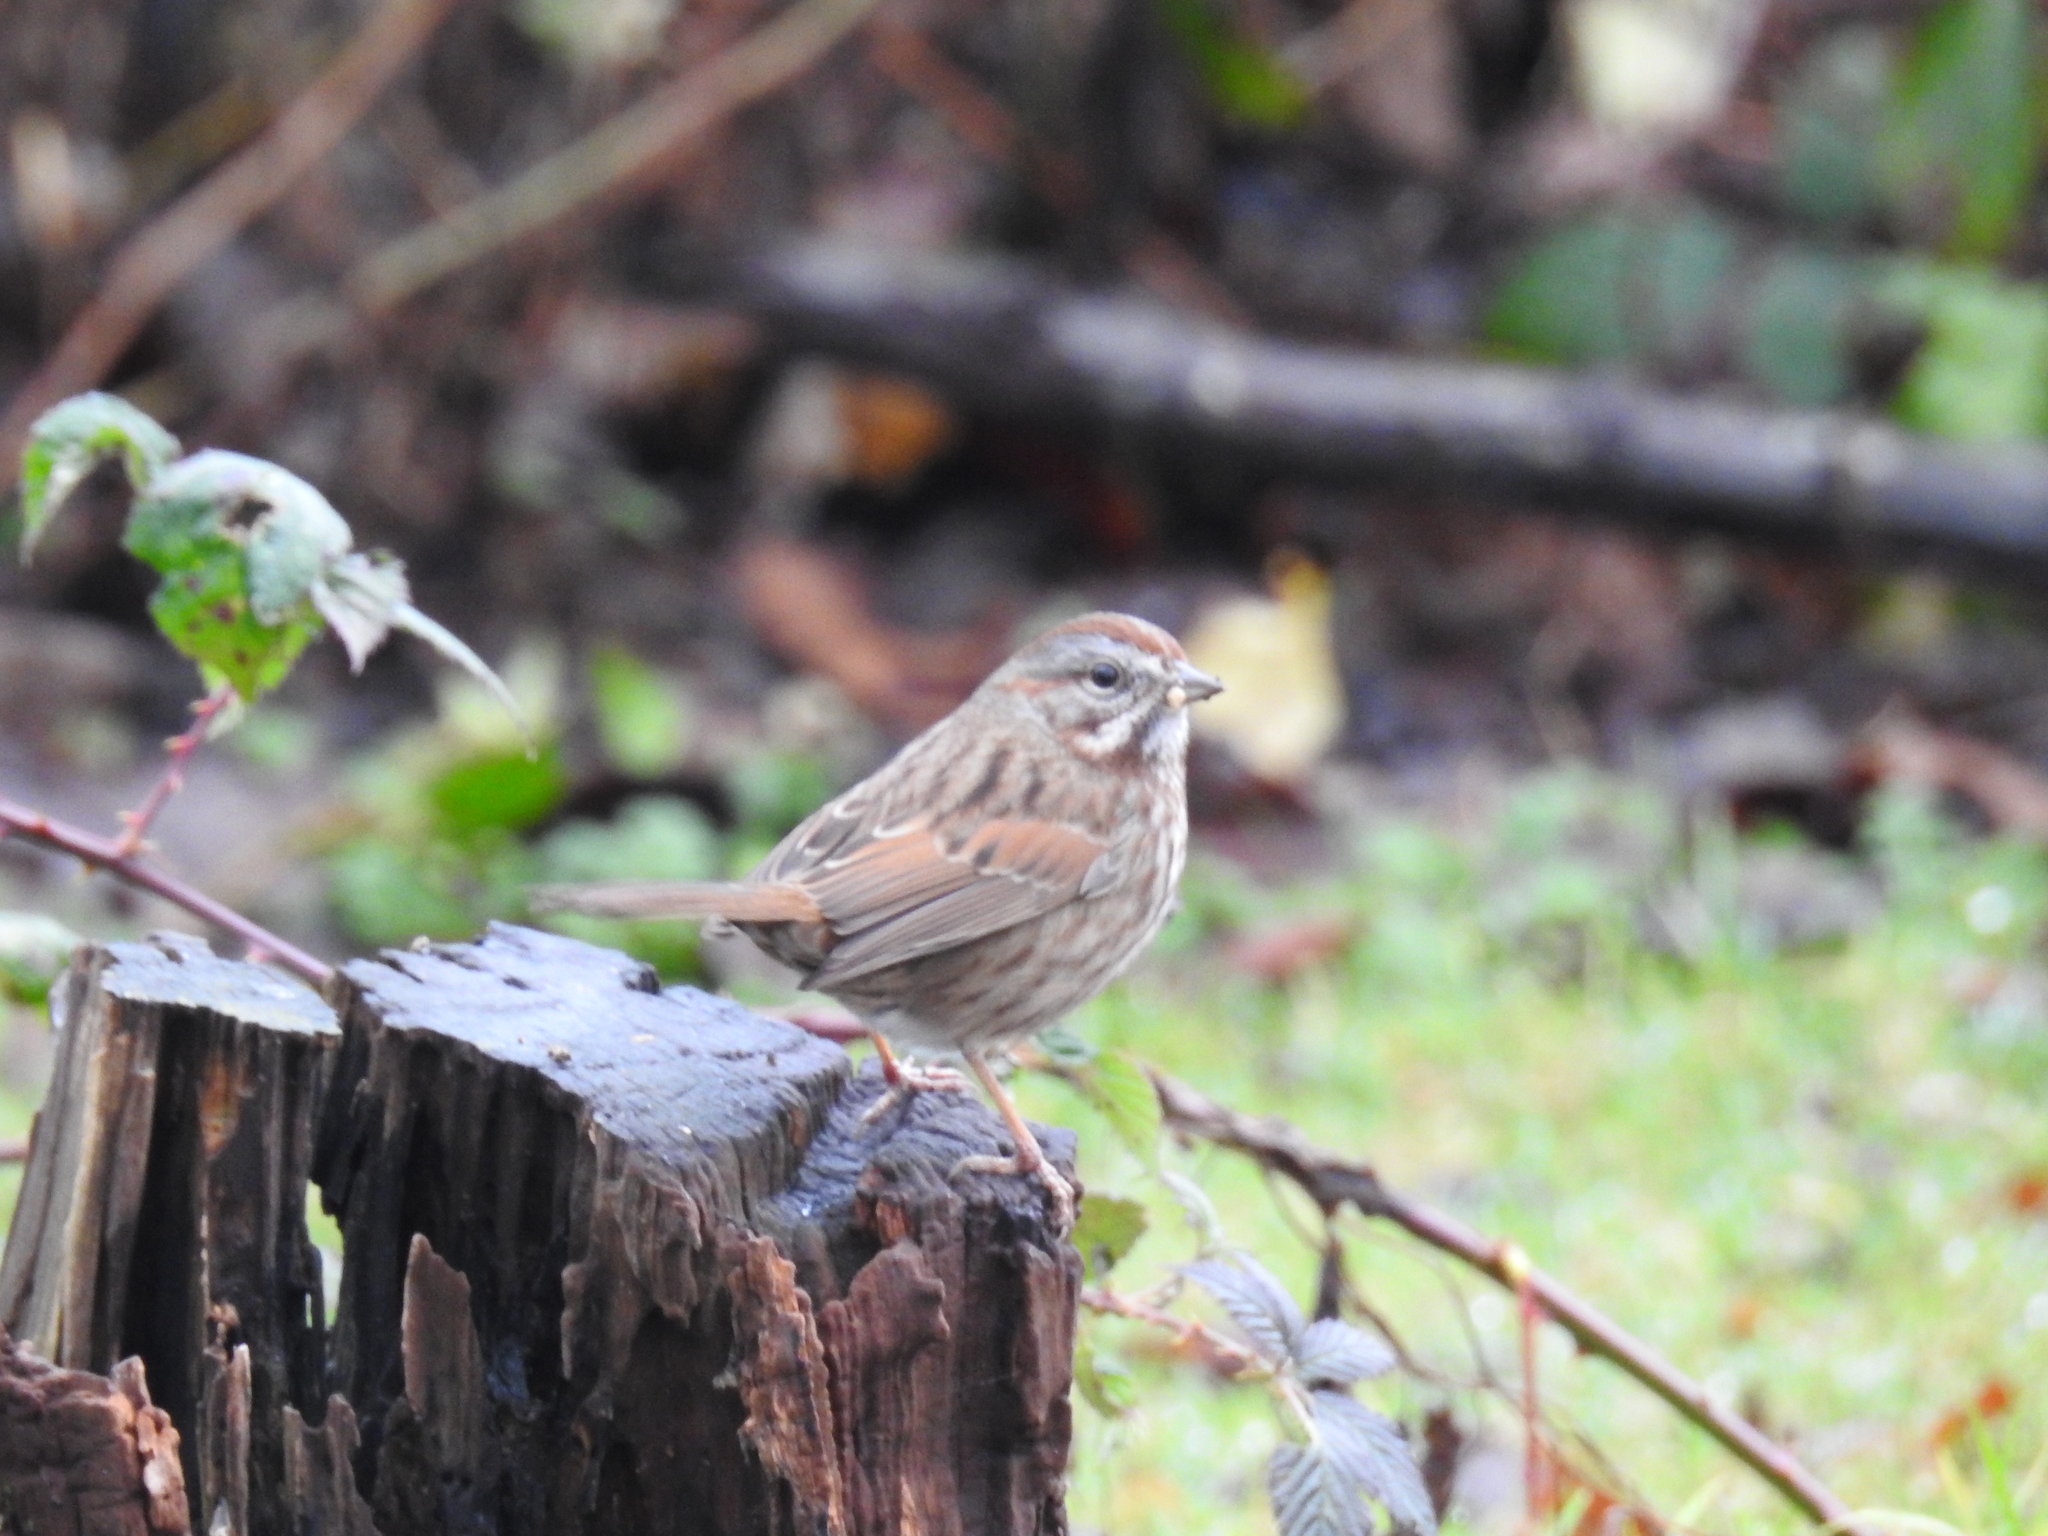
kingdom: Animalia
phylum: Chordata
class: Aves
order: Passeriformes
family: Passerellidae
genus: Melospiza
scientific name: Melospiza melodia
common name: Song sparrow
